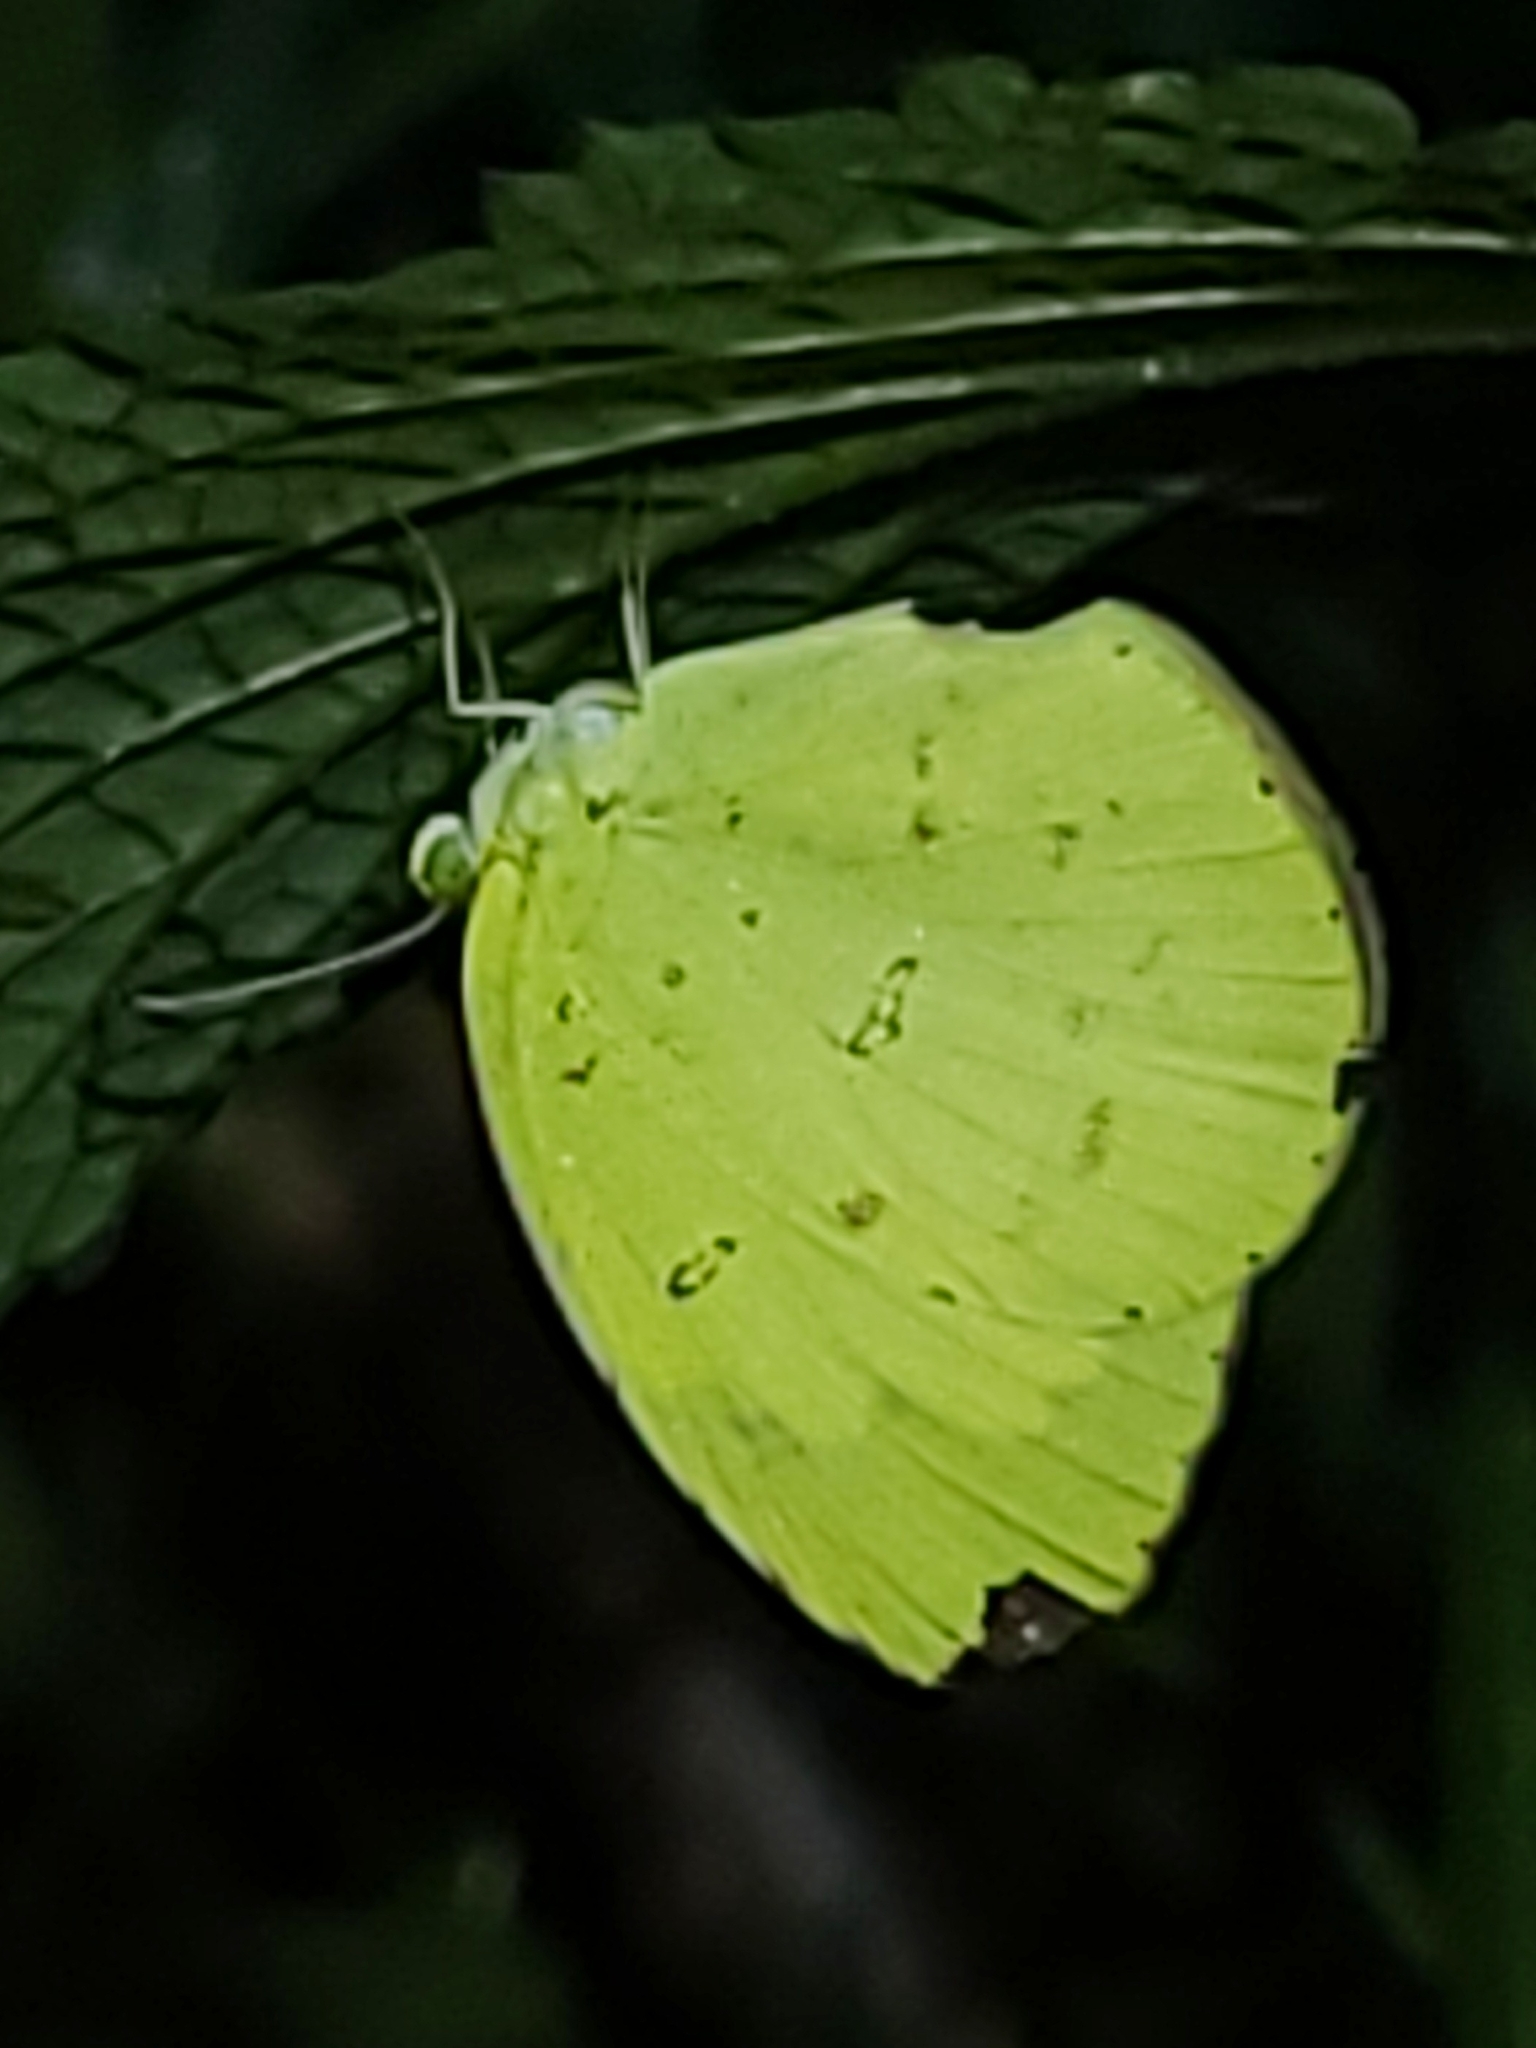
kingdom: Animalia
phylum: Arthropoda
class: Insecta
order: Lepidoptera
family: Pieridae
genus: Eurema
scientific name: Eurema hecabe
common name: Pale grass yellow
